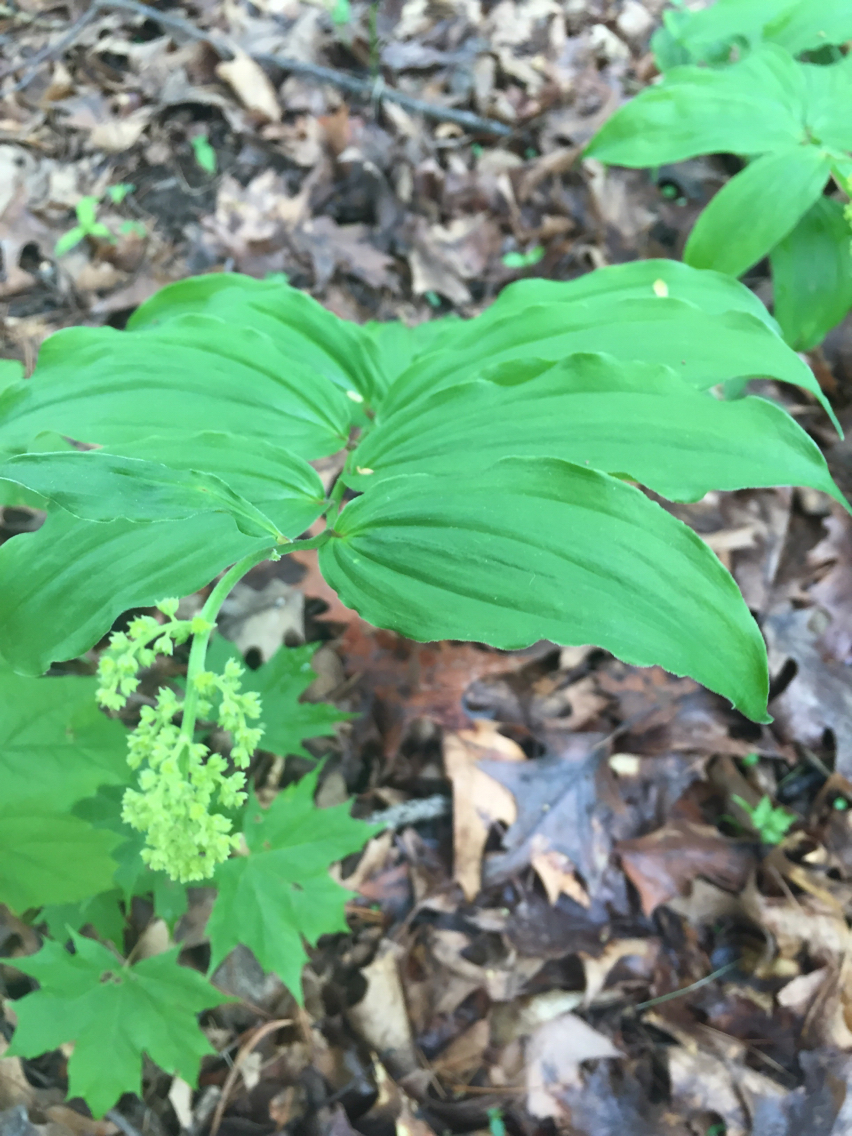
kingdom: Plantae
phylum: Tracheophyta
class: Liliopsida
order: Asparagales
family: Asparagaceae
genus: Maianthemum
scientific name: Maianthemum racemosum
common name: False spikenard
